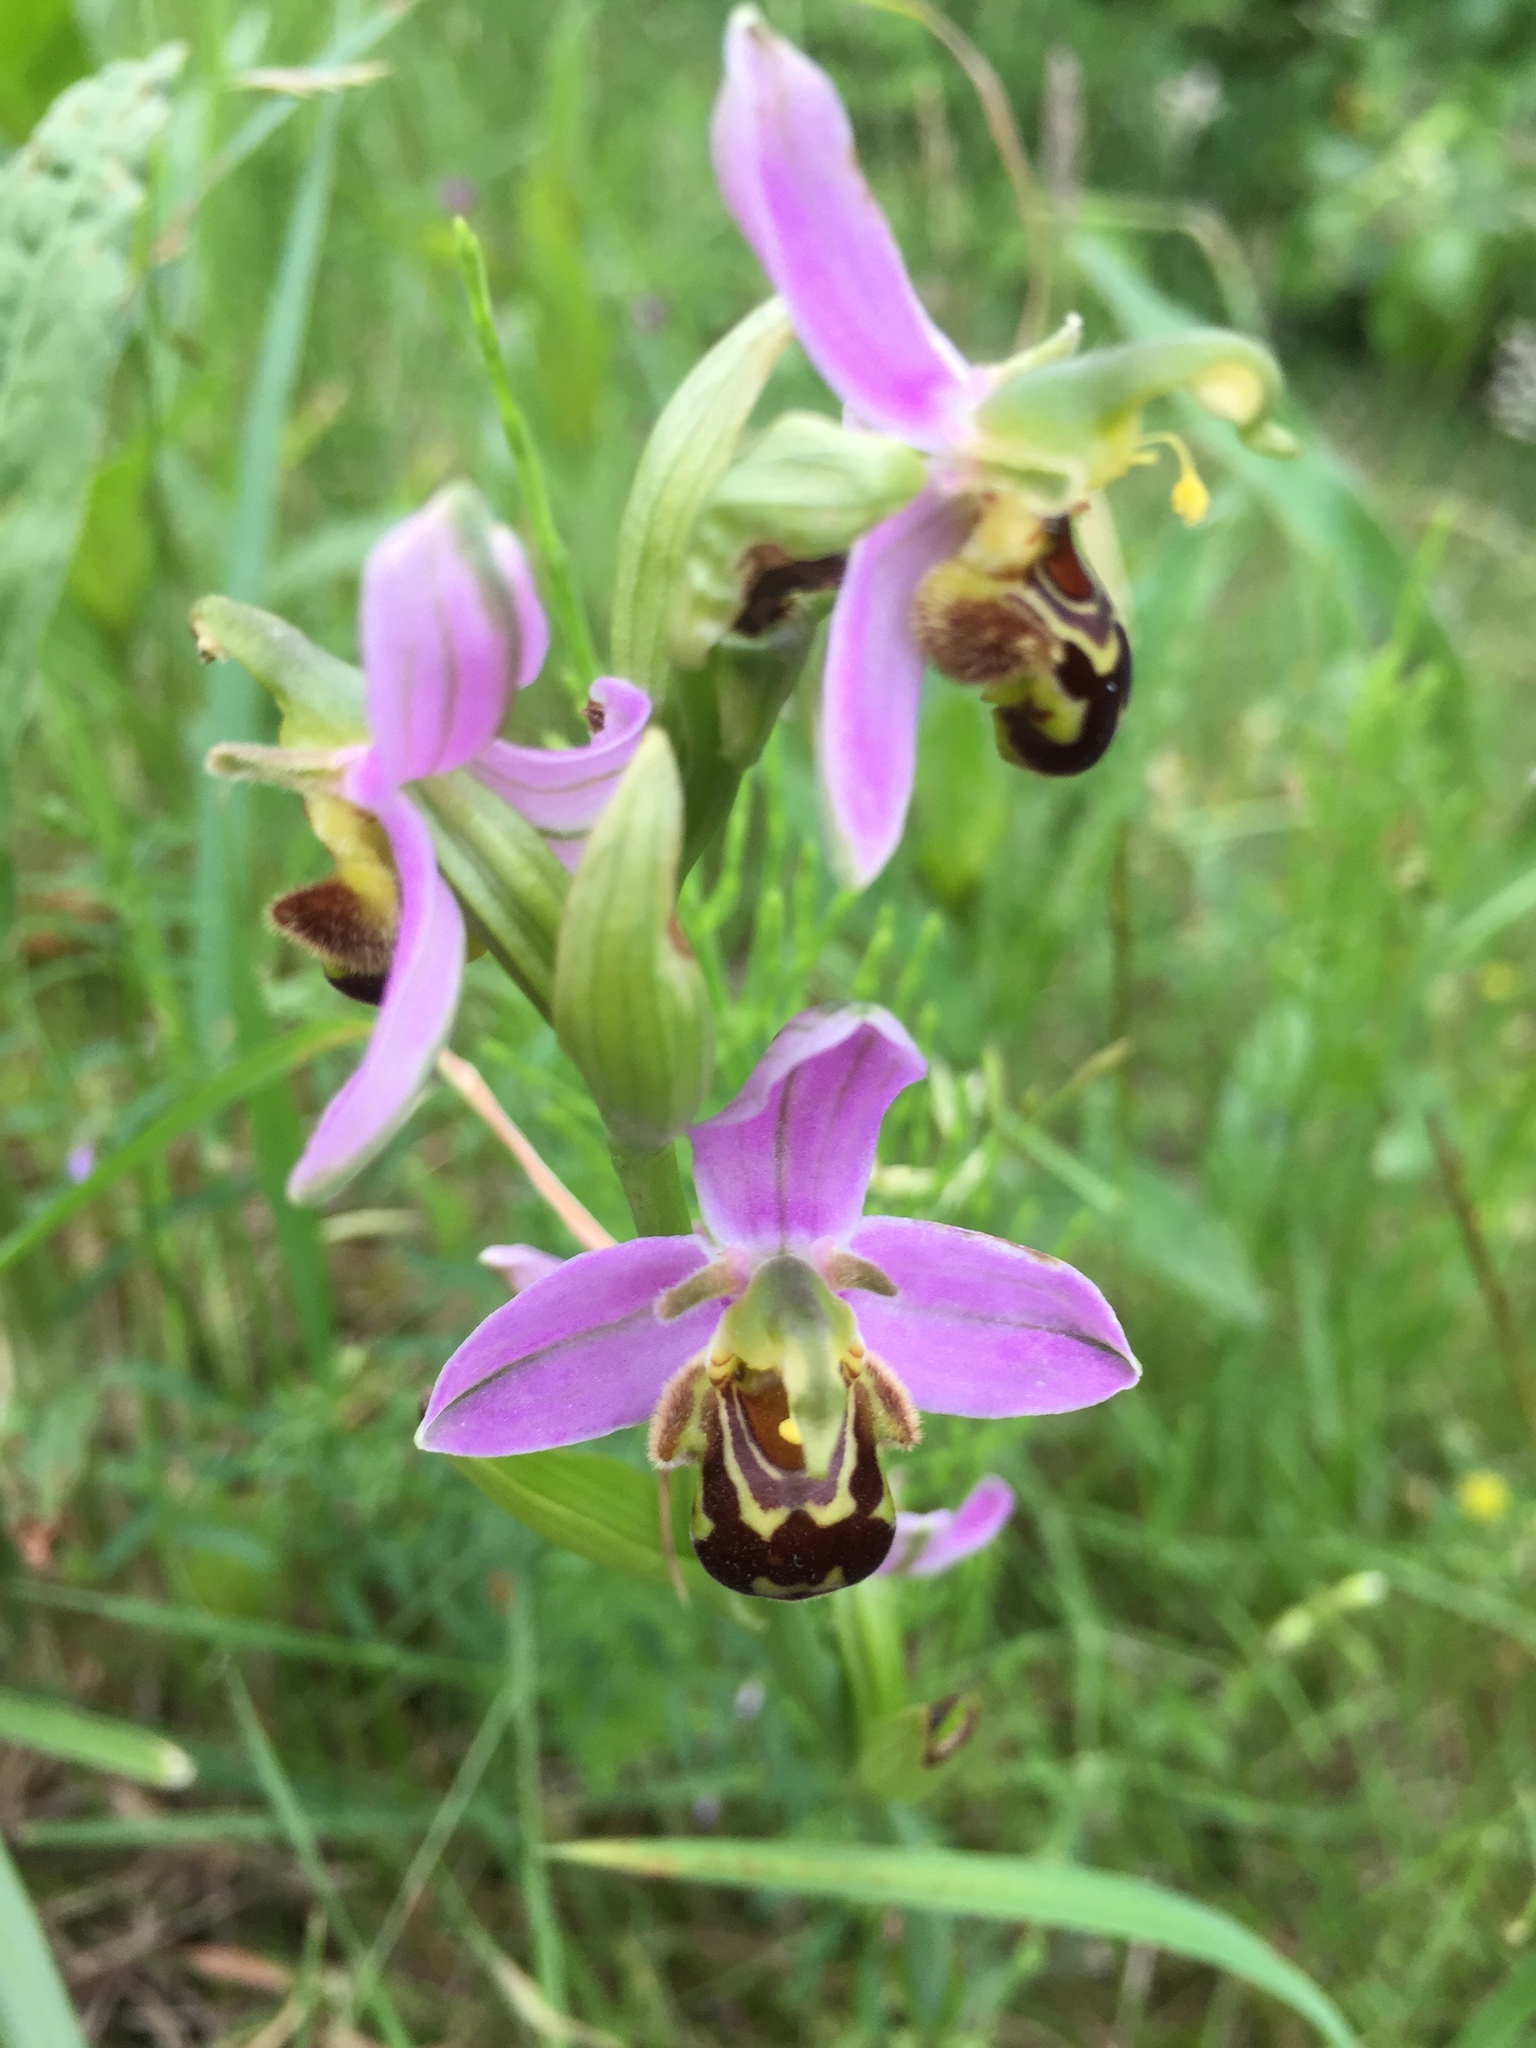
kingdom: Plantae
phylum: Tracheophyta
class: Liliopsida
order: Asparagales
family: Orchidaceae
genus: Ophrys
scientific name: Ophrys apifera
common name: Bee orchid
